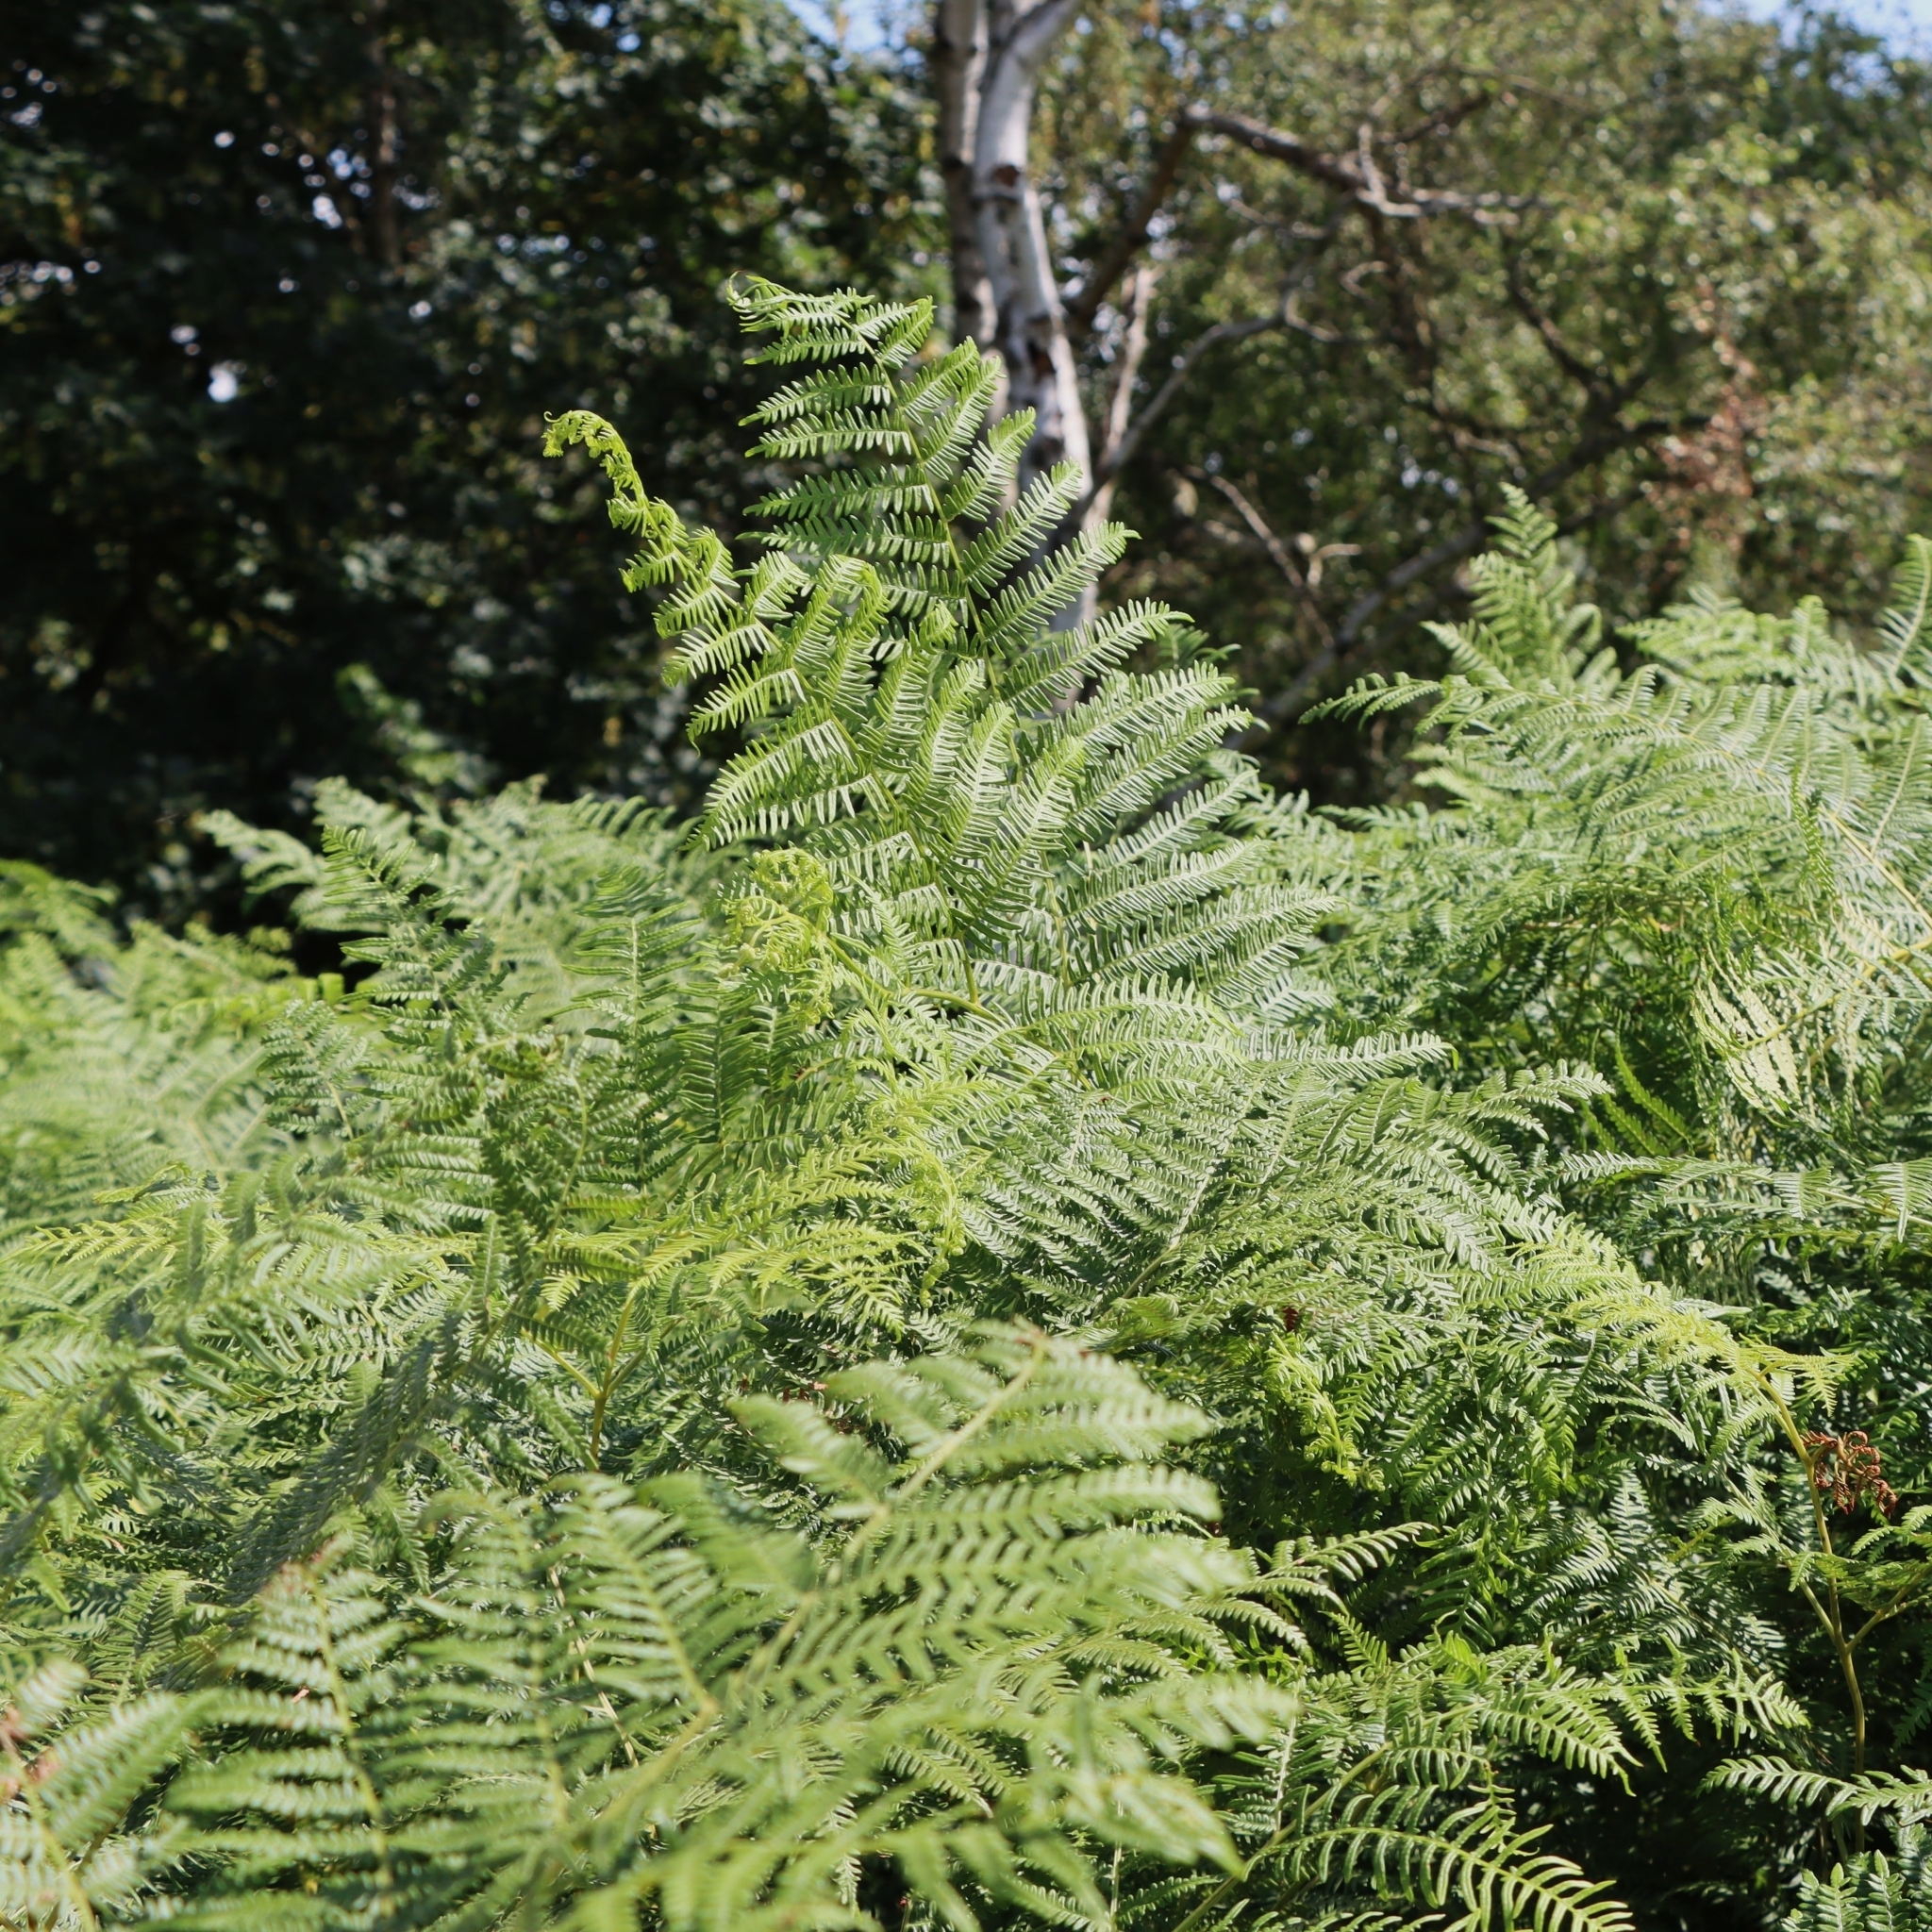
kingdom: Plantae
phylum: Tracheophyta
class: Polypodiopsida
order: Polypodiales
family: Dennstaedtiaceae
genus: Pteridium
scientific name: Pteridium aquilinum
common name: Bracken
